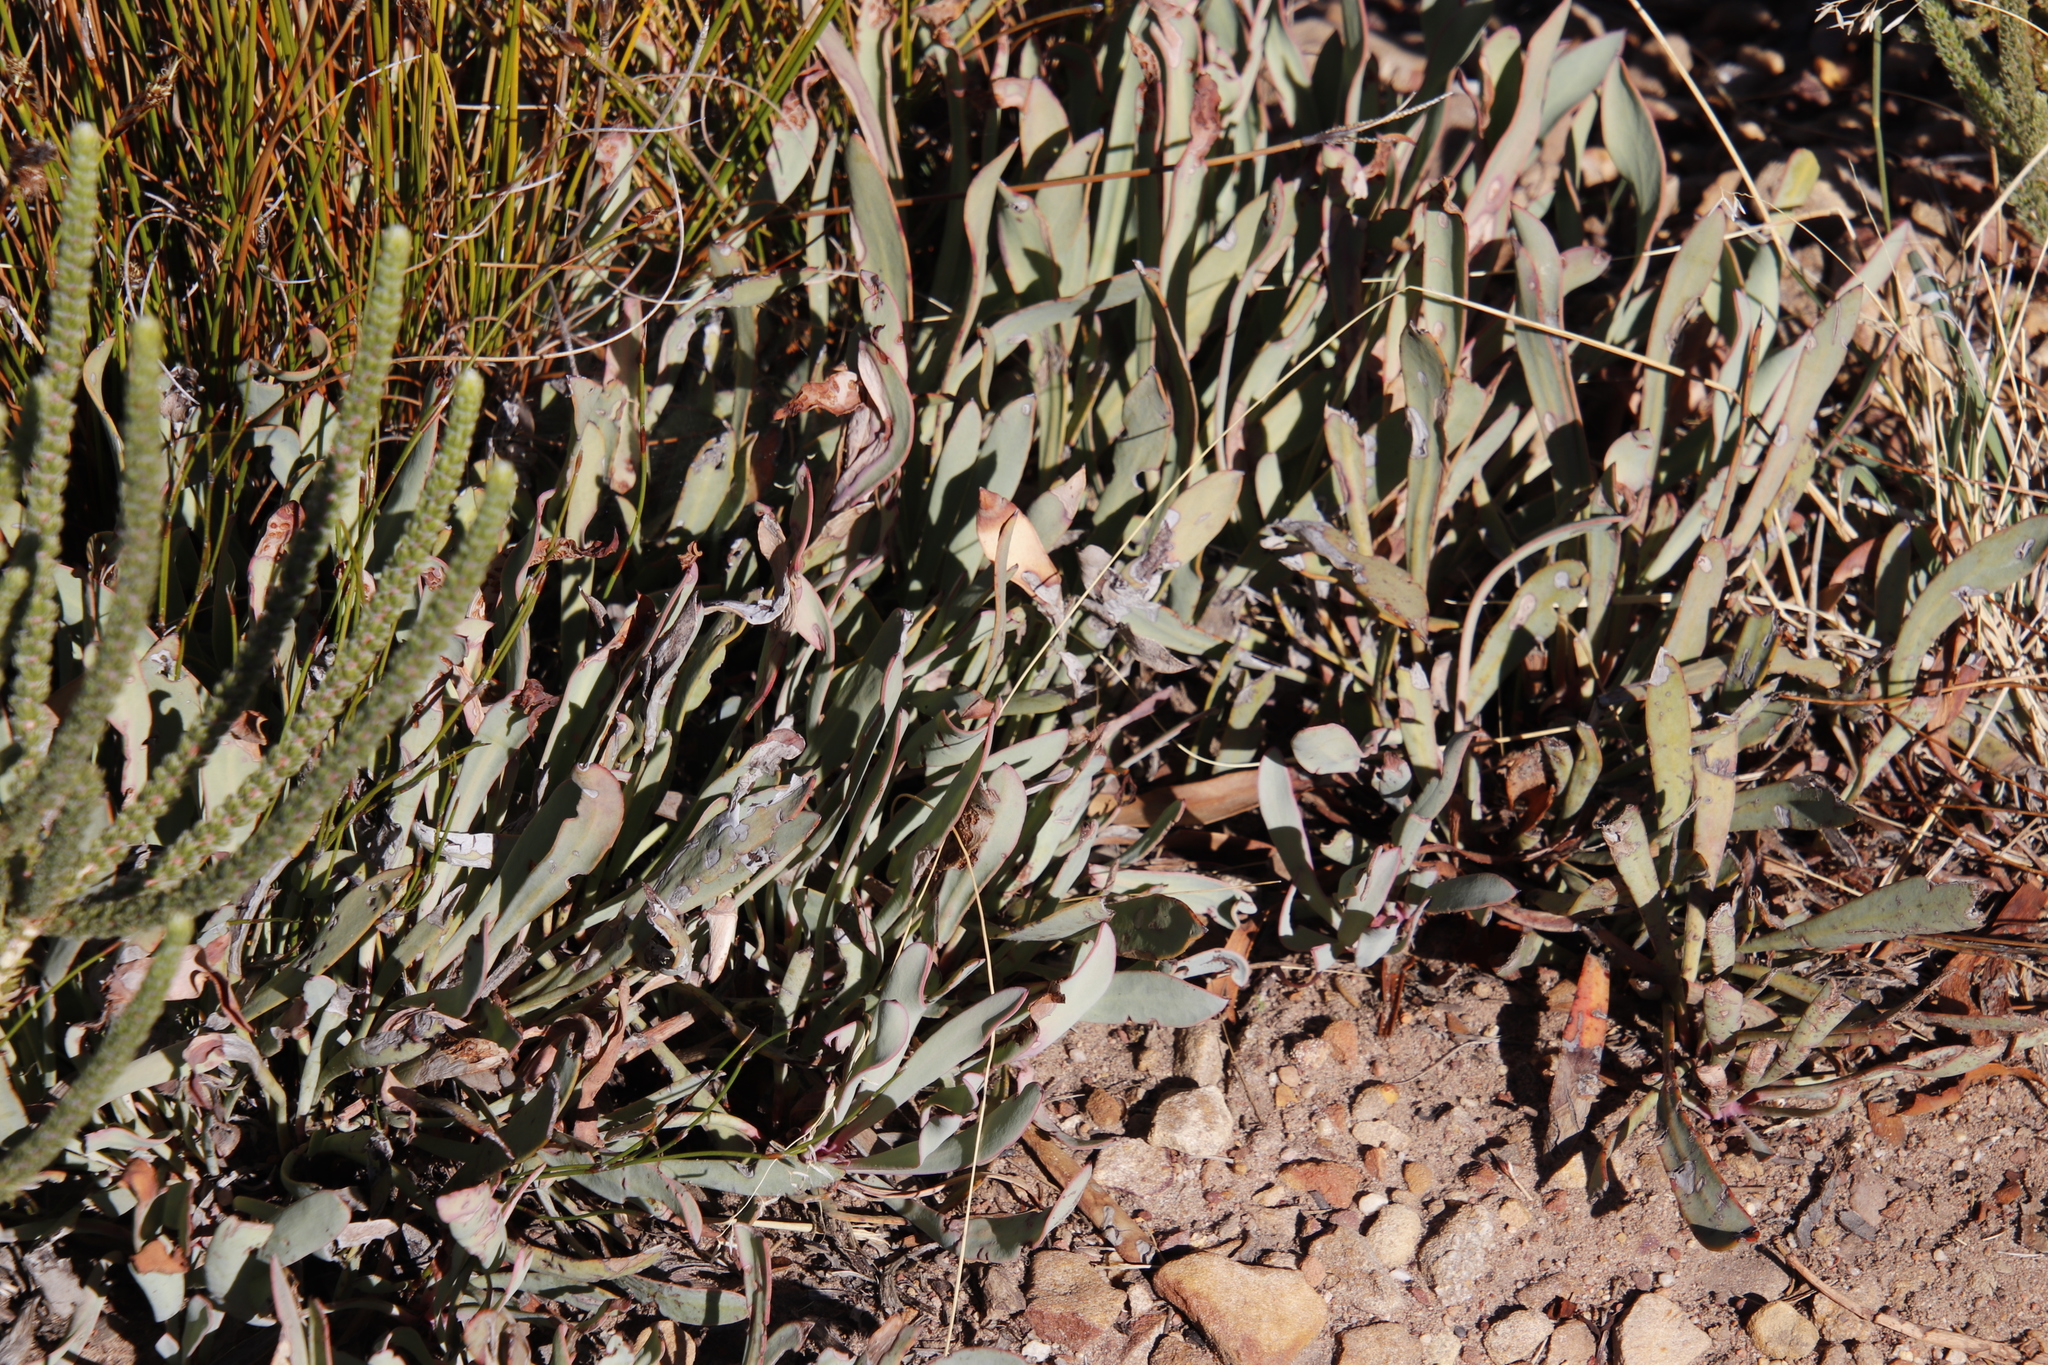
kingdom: Plantae
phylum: Tracheophyta
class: Magnoliopsida
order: Proteales
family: Proteaceae
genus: Protea
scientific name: Protea laevis
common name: Smooth-leaf sugarbush
